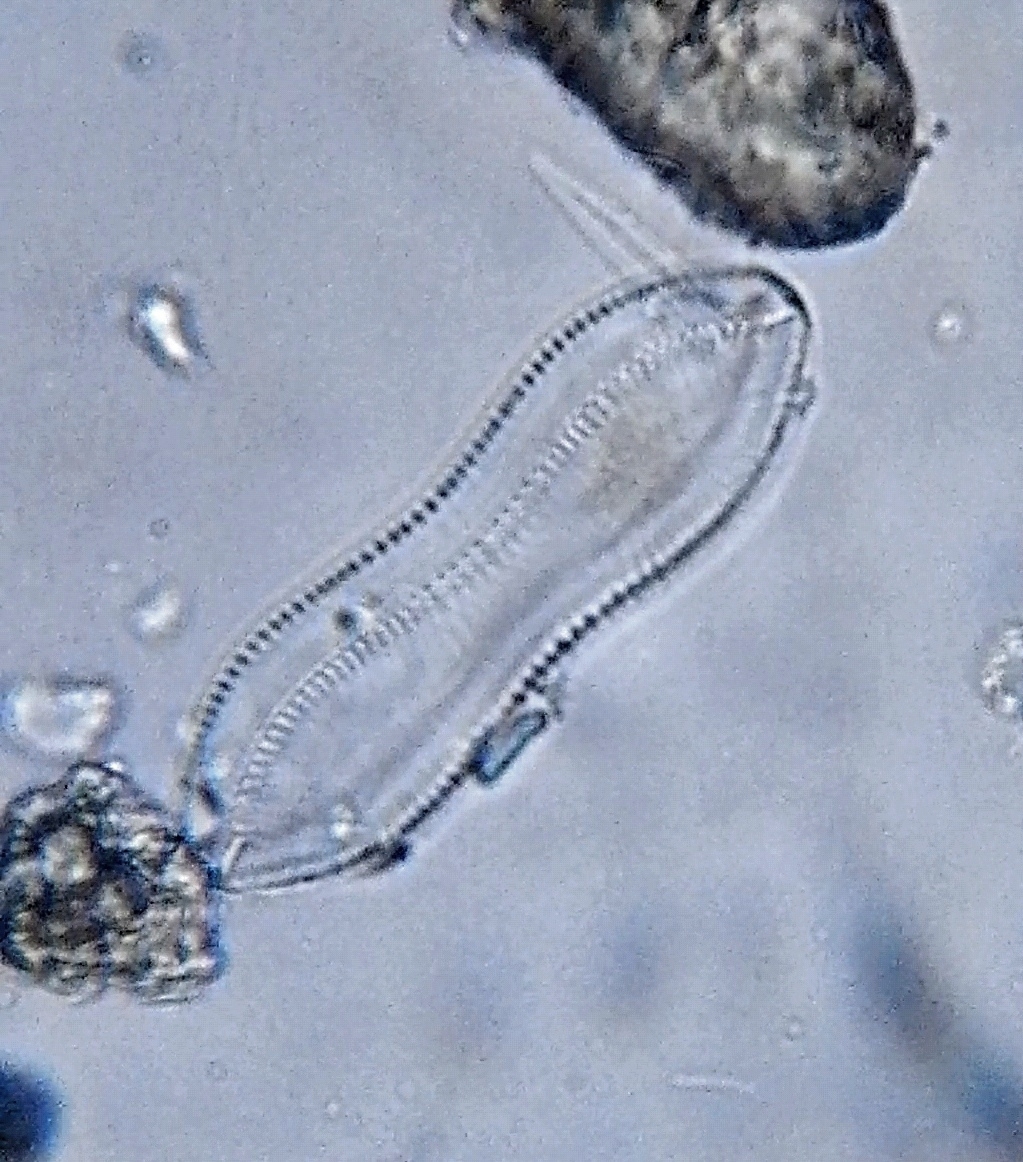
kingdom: Chromista
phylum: Ochrophyta
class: Bacillariophyceae
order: Surirellales
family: Surirellaceae
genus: Surirella
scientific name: Surirella librile
